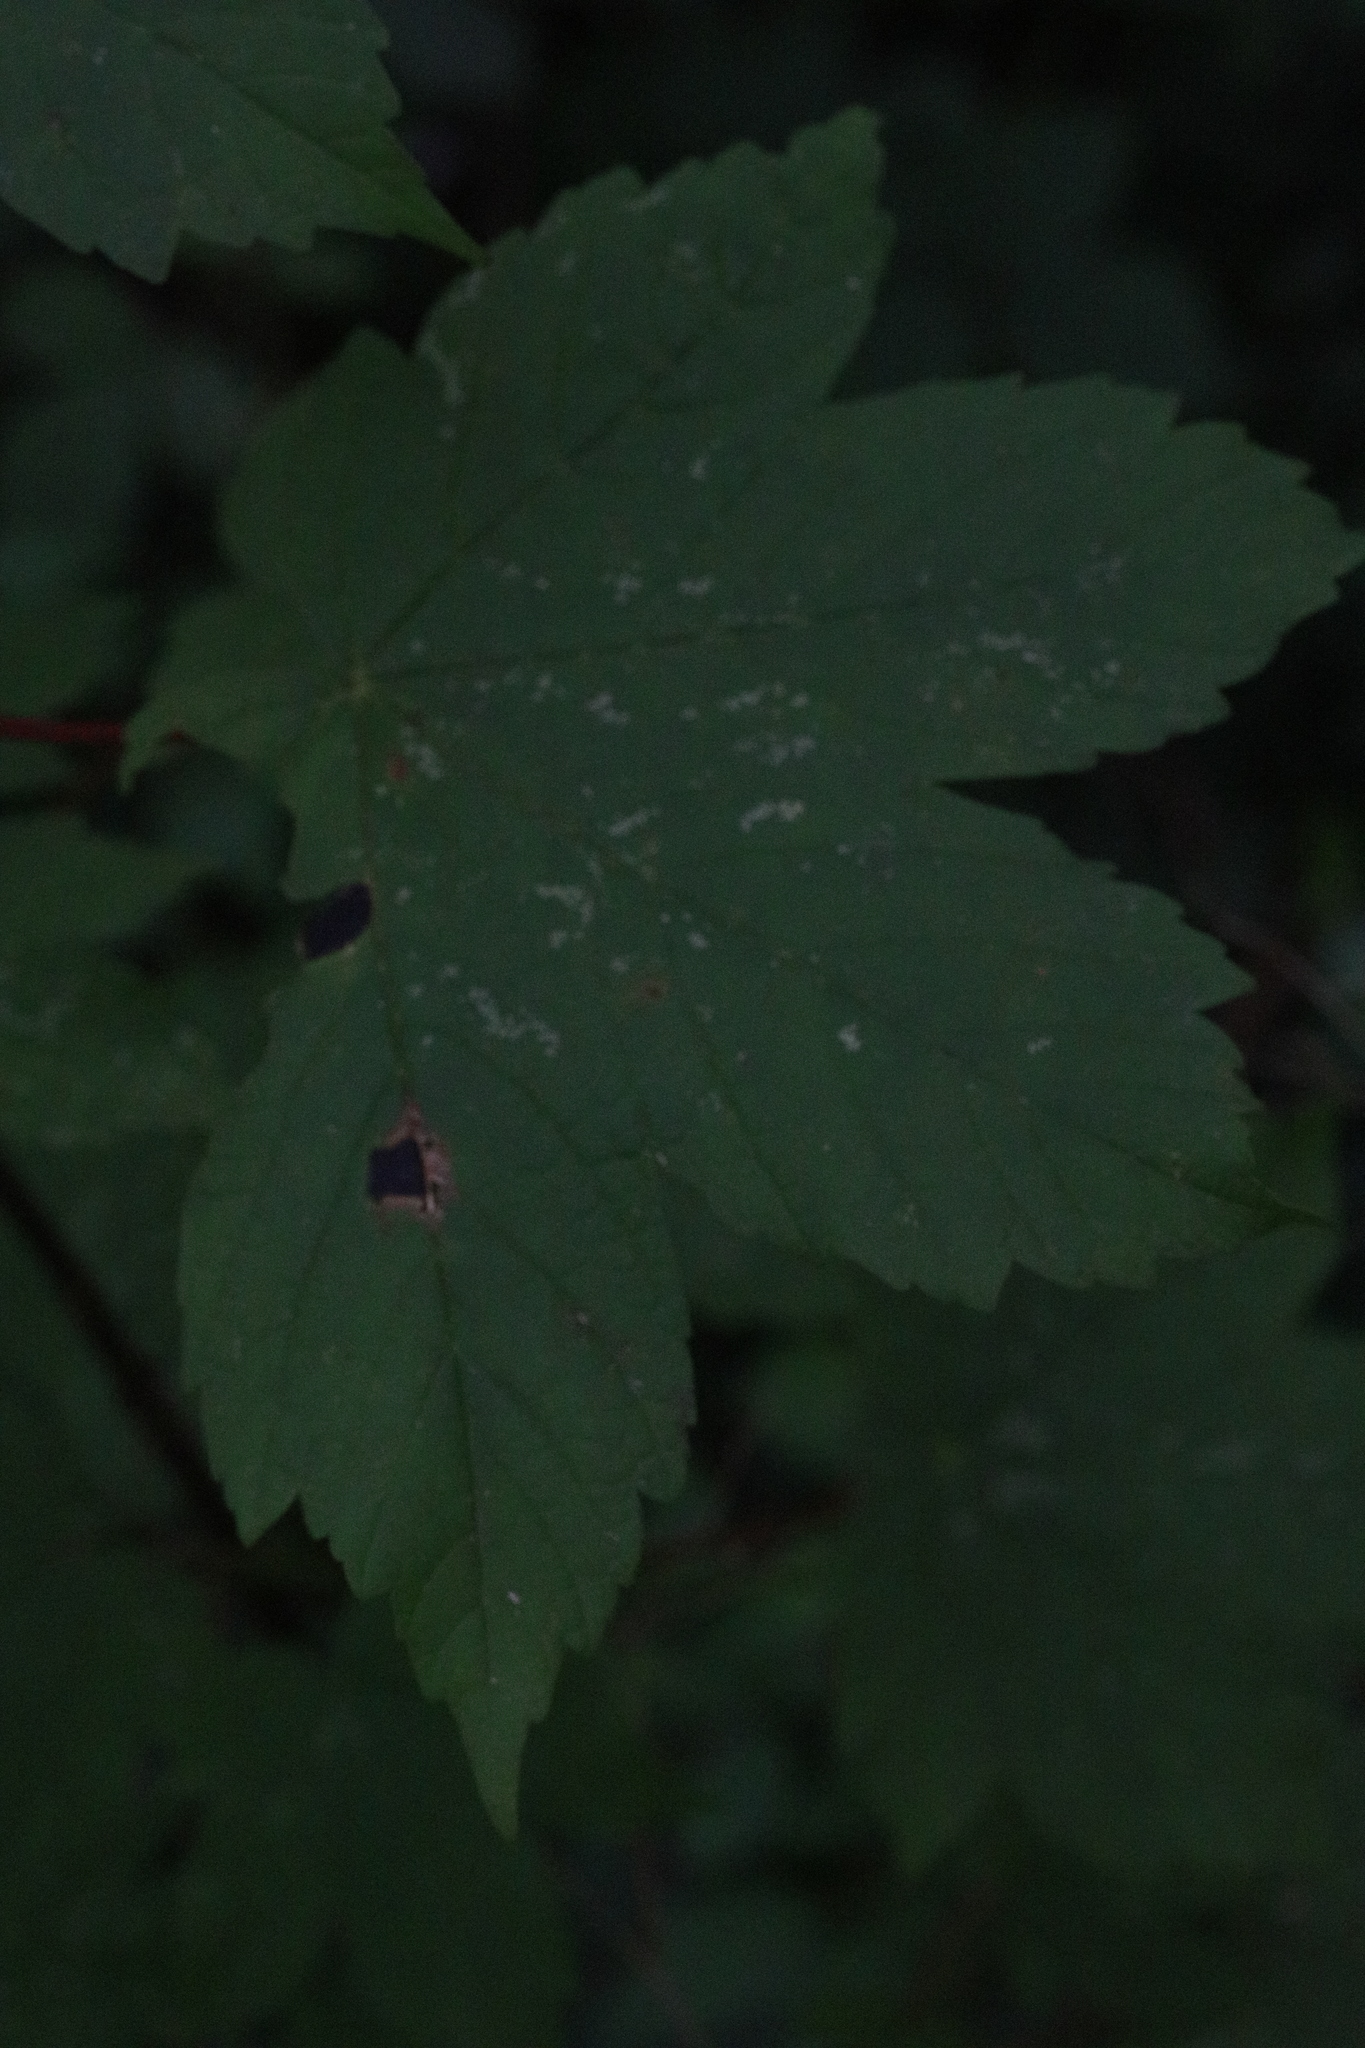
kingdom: Plantae
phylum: Tracheophyta
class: Magnoliopsida
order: Sapindales
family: Sapindaceae
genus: Acer
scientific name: Acer pseudoplatanus
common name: Sycamore
